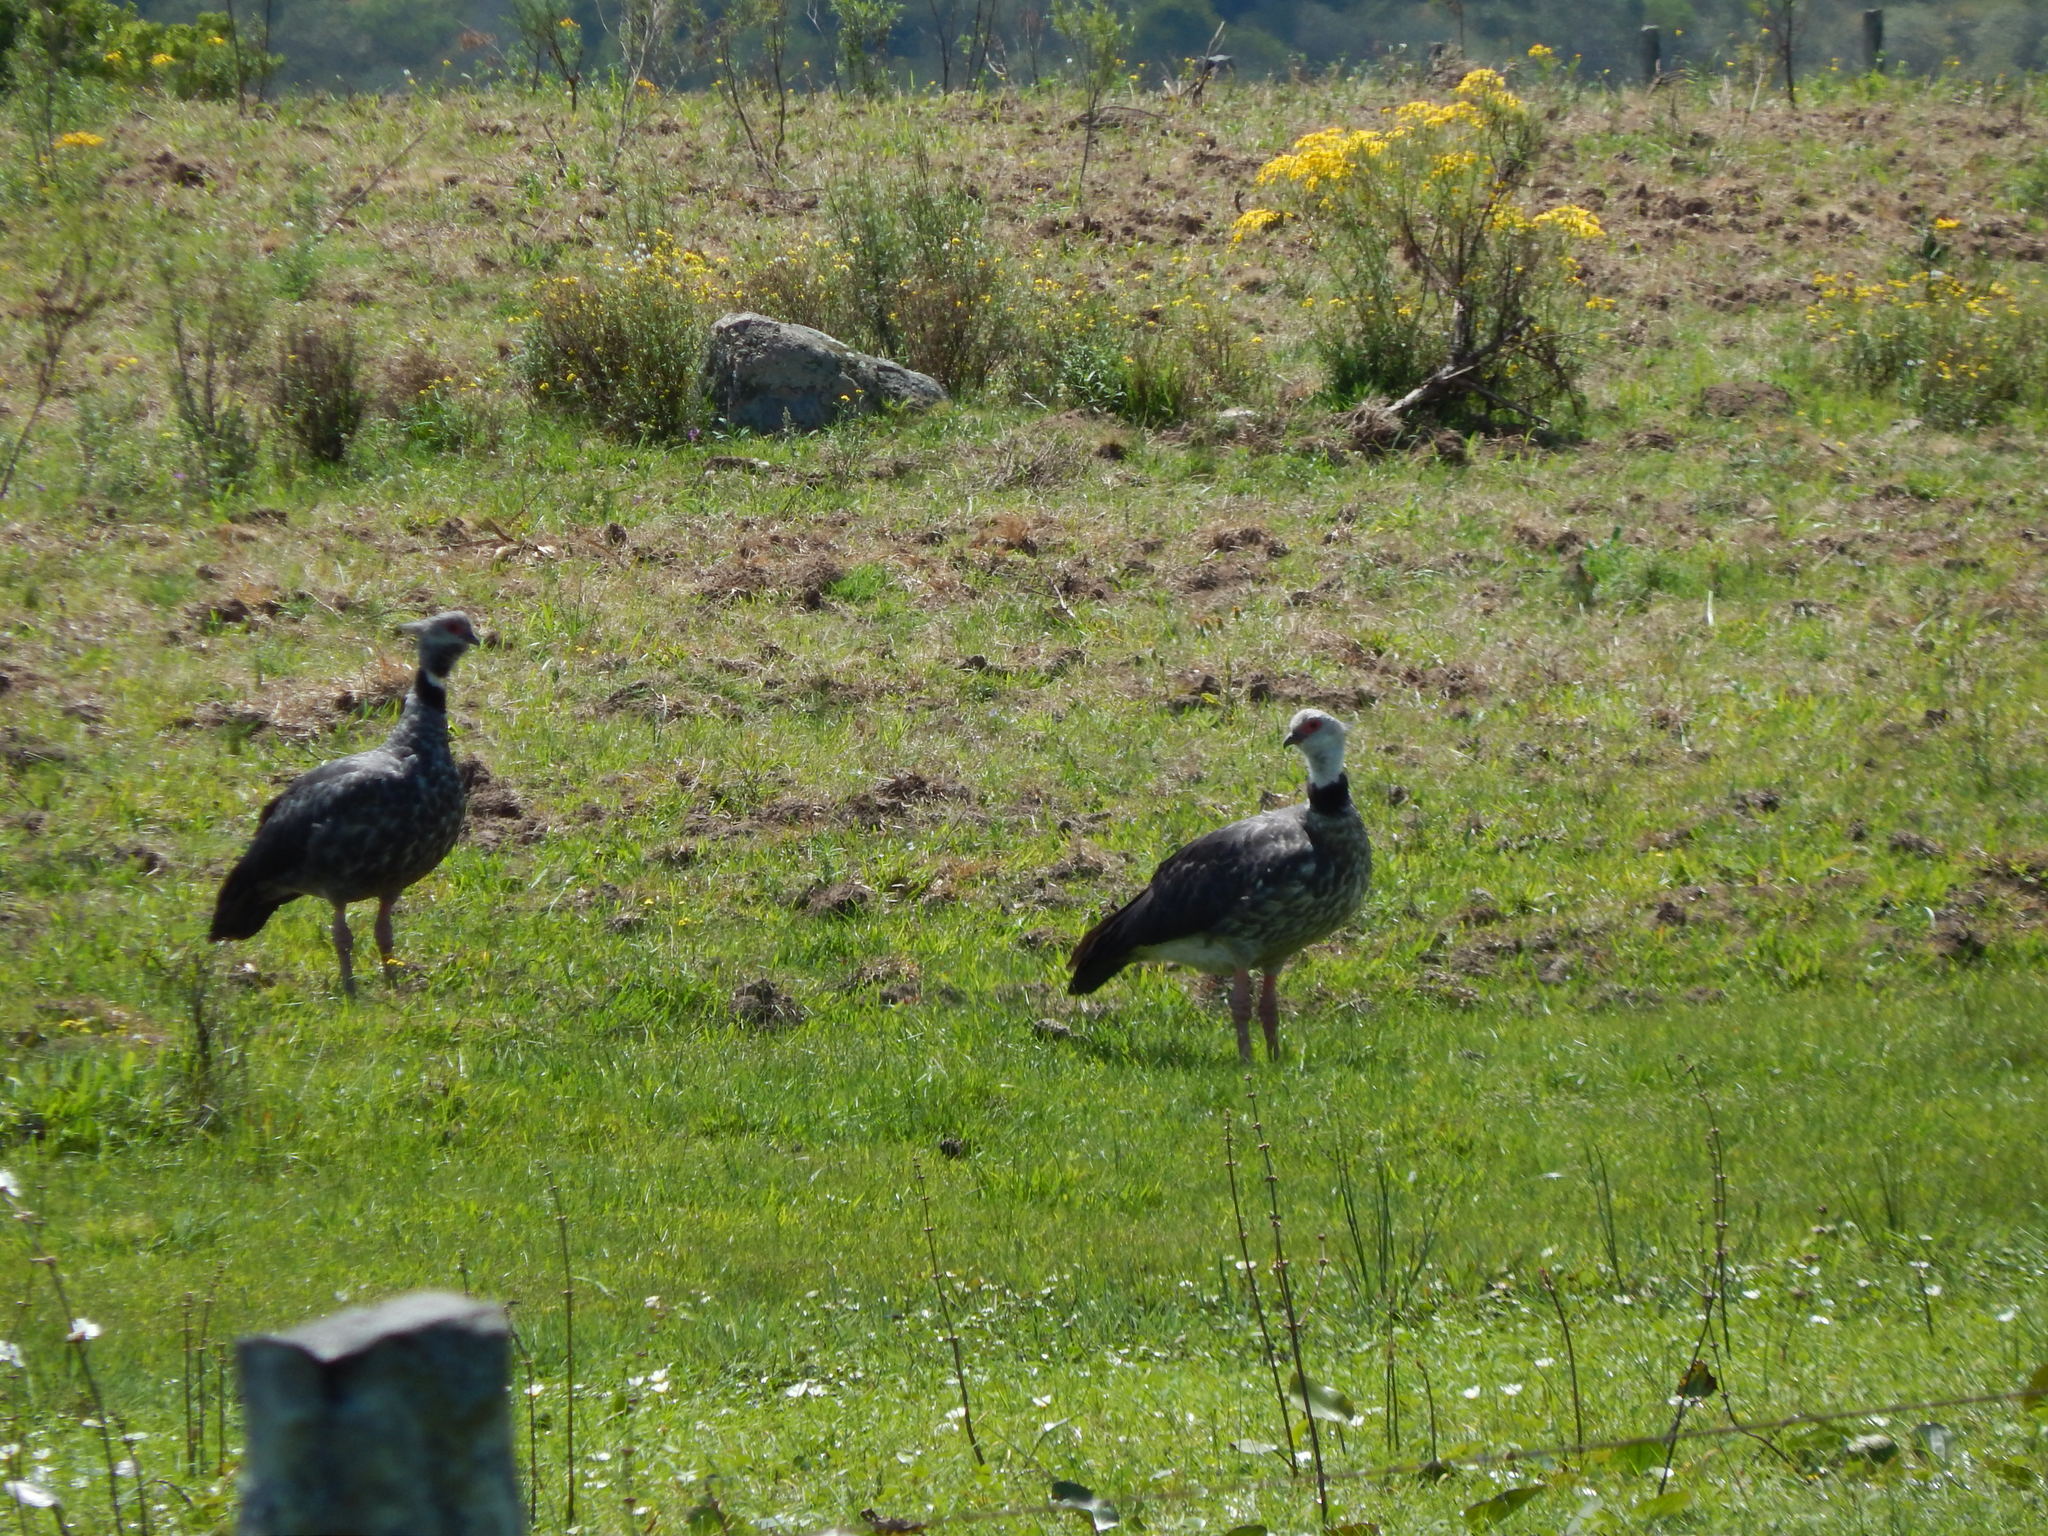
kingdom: Animalia
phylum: Chordata
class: Aves
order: Anseriformes
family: Anhimidae
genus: Chauna
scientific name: Chauna torquata
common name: Southern screamer
